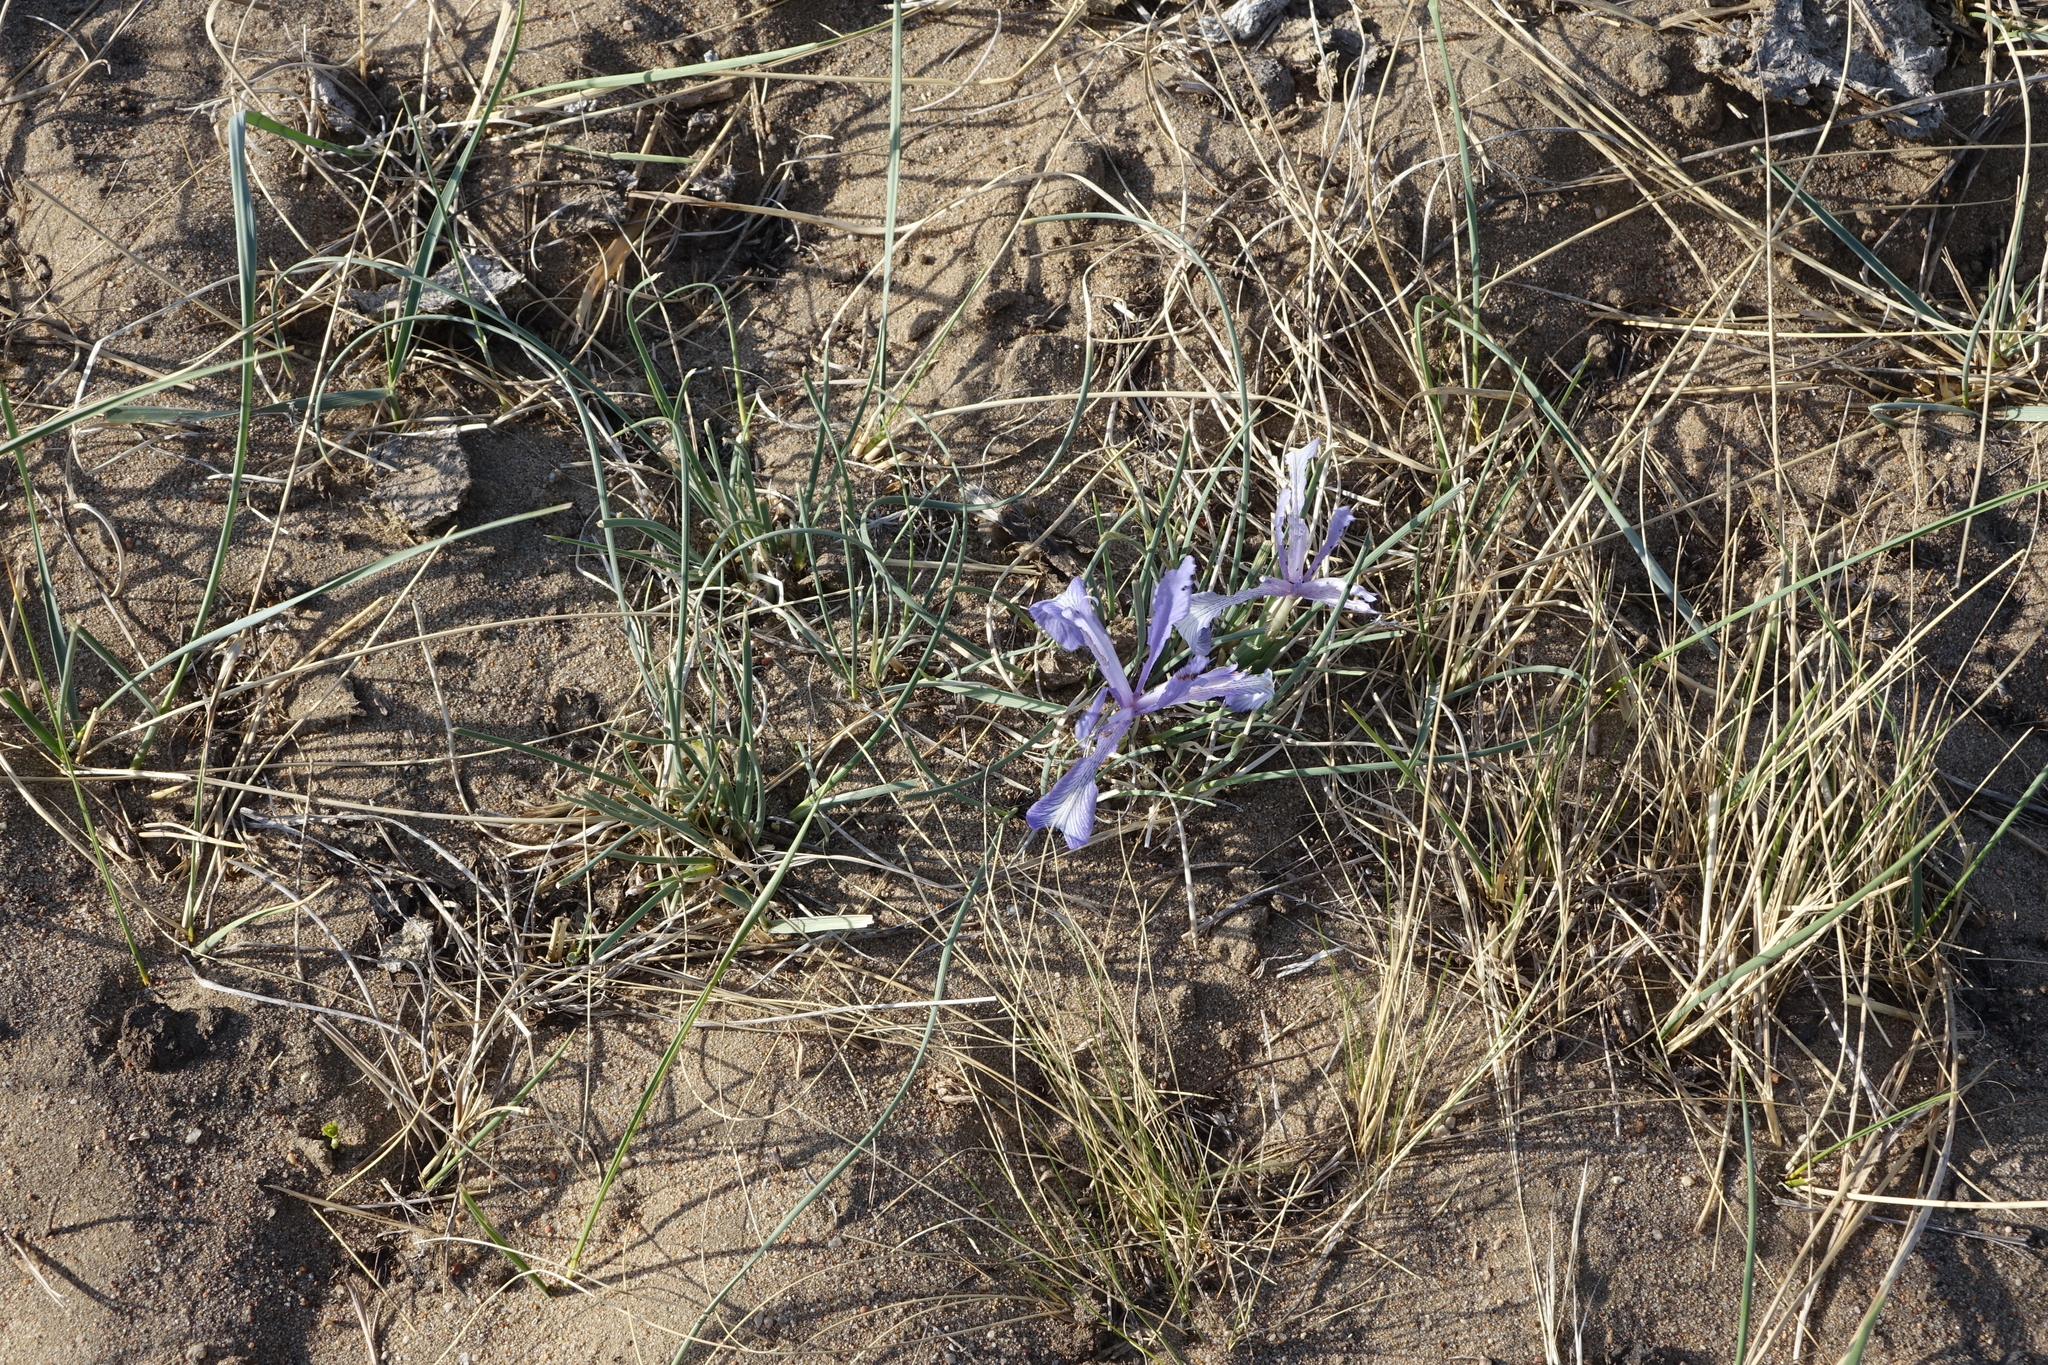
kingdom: Plantae
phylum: Tracheophyta
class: Liliopsida
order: Asparagales
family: Iridaceae
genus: Iris
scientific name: Iris tenuifolia
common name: Slender-leaf iris
